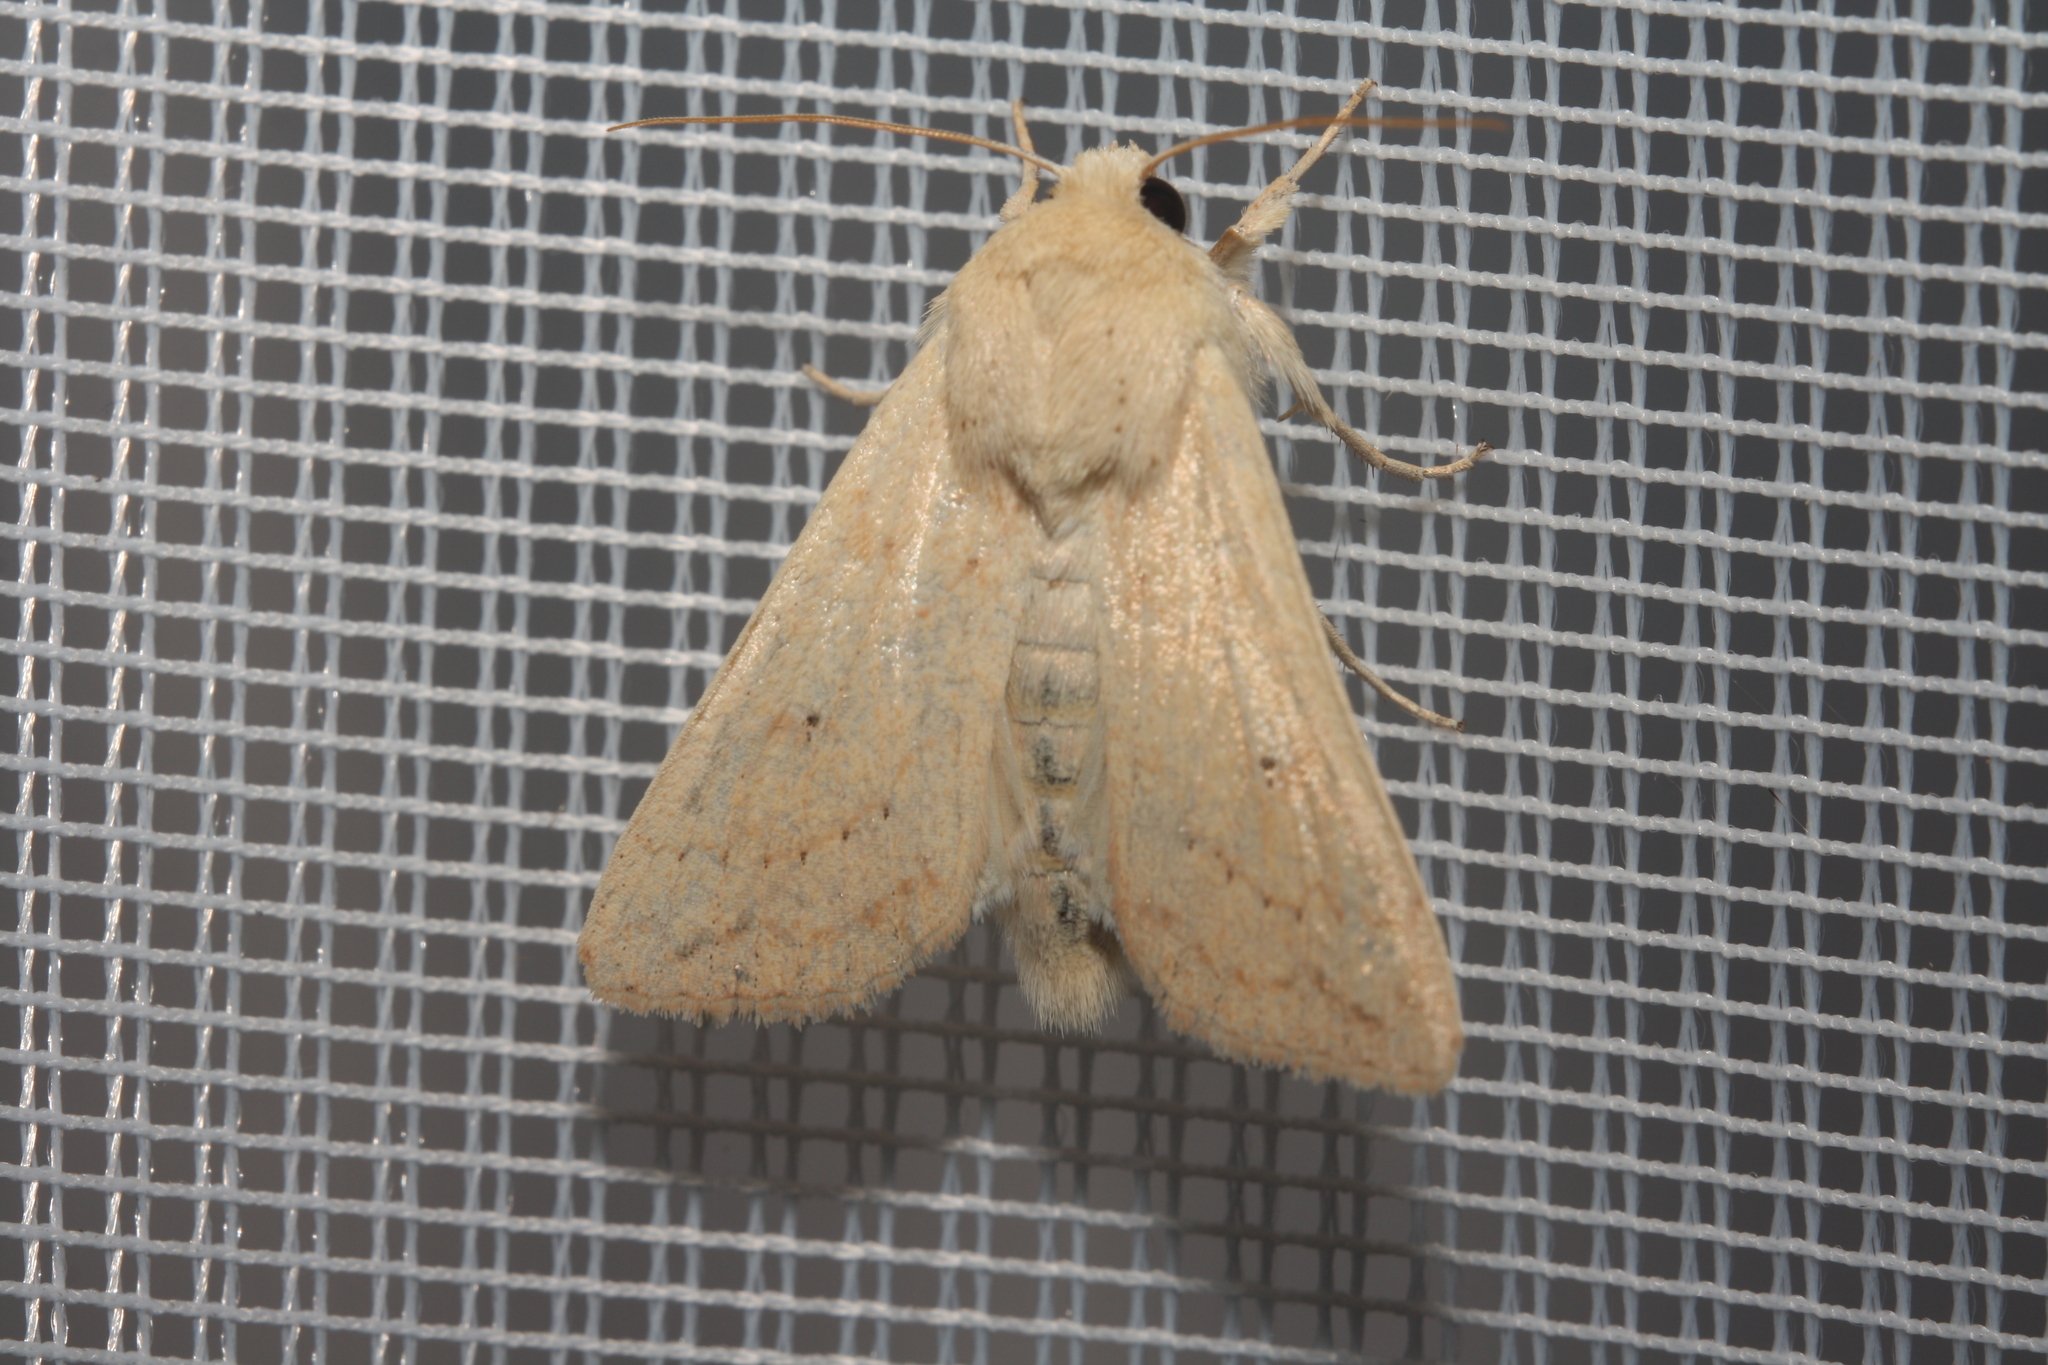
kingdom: Animalia
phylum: Arthropoda
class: Insecta
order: Lepidoptera
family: Noctuidae
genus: Mythimna
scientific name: Mythimna vitellina
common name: Delicate
